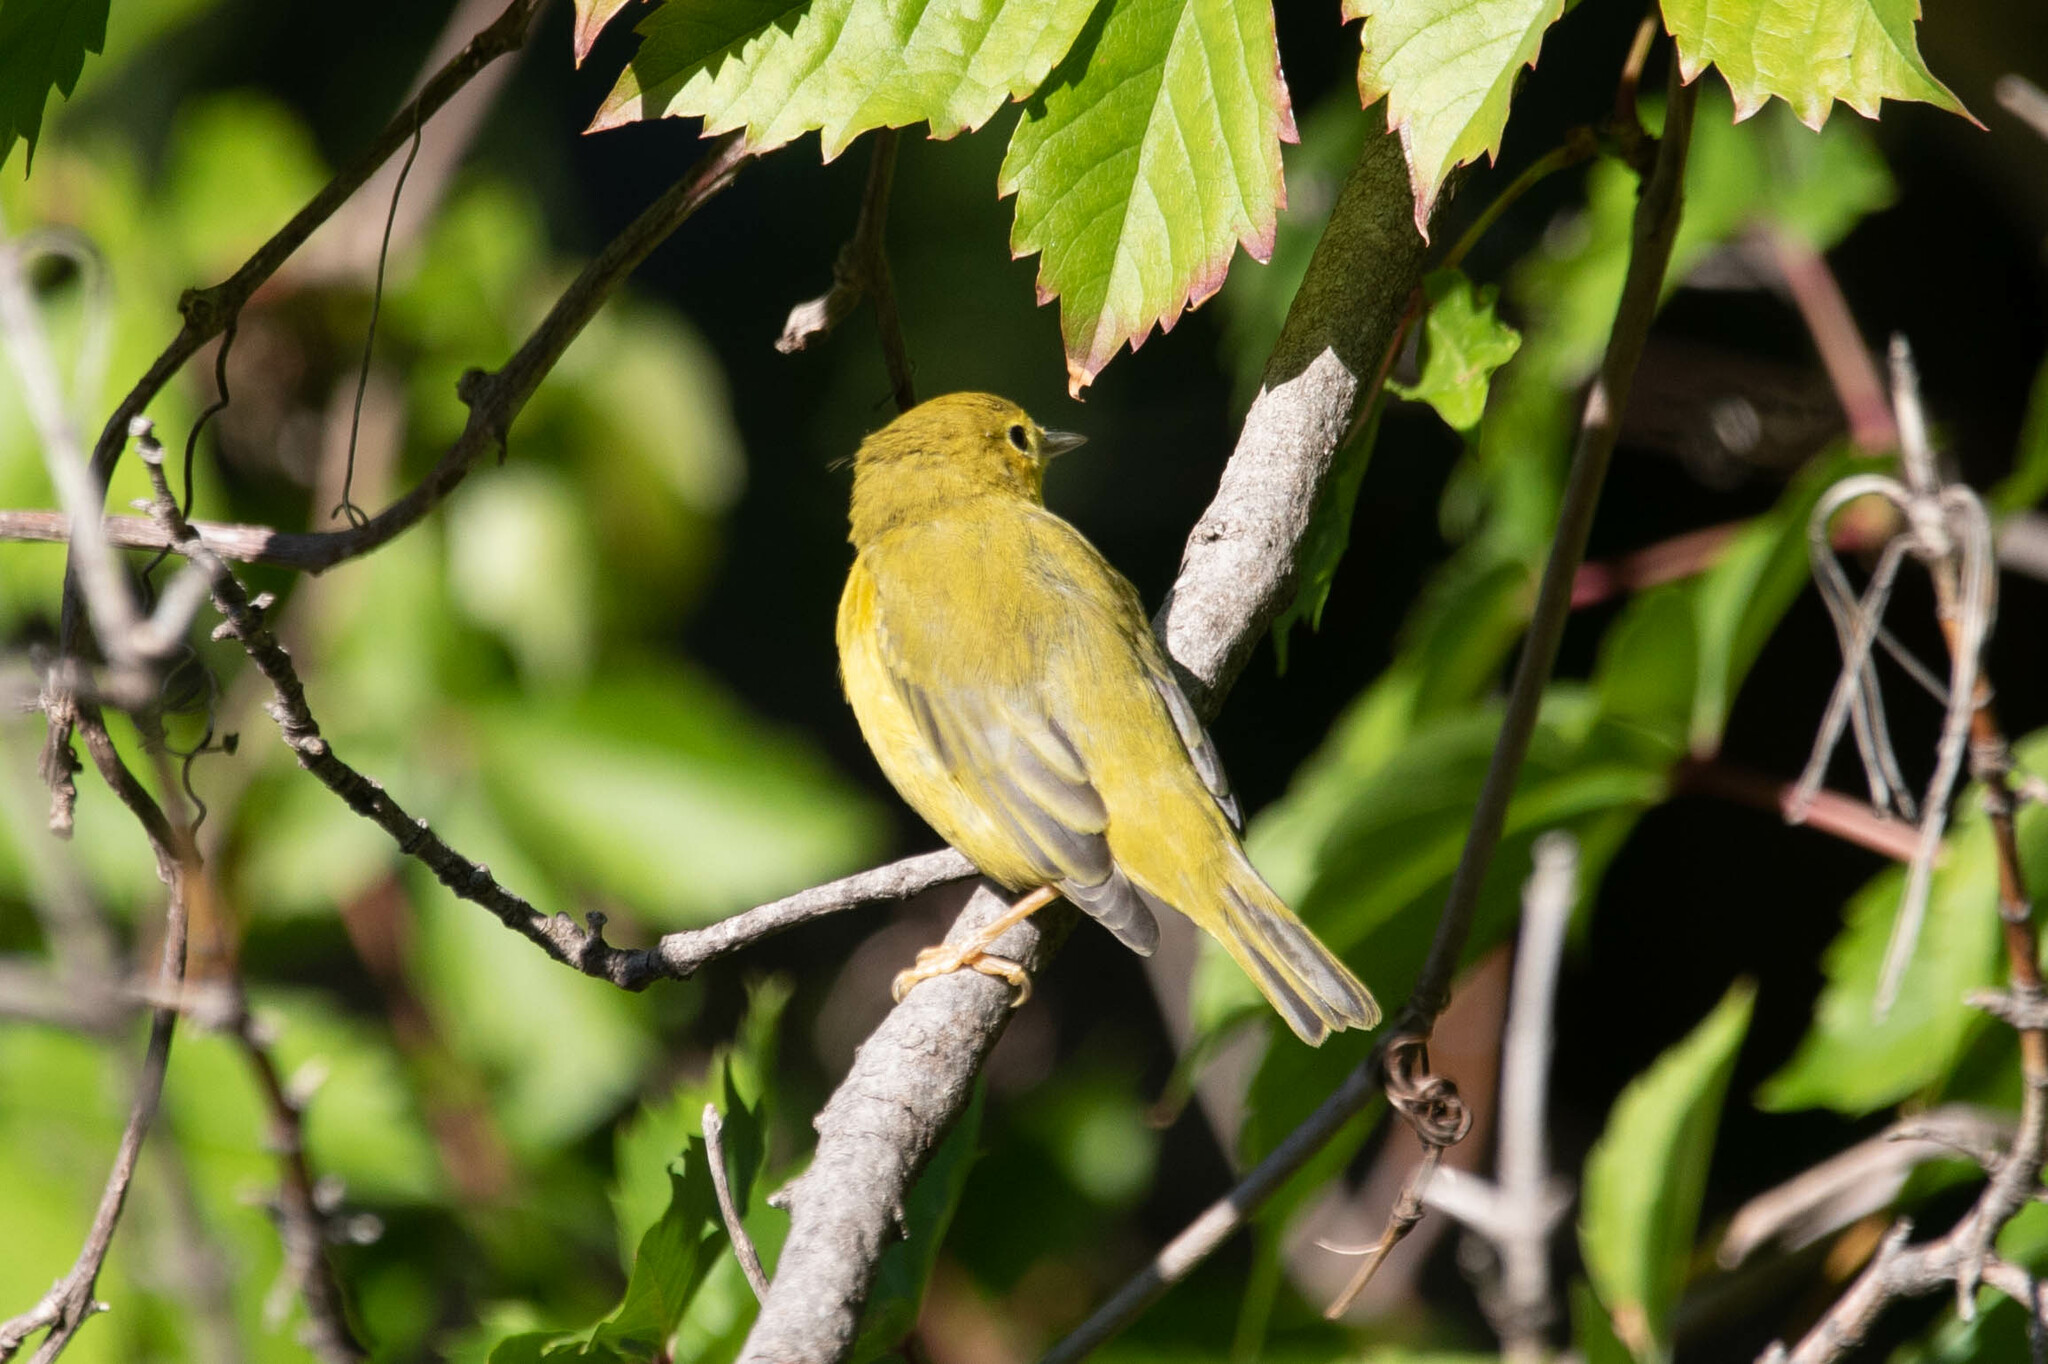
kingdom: Animalia
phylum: Chordata
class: Aves
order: Passeriformes
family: Parulidae
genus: Setophaga
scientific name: Setophaga petechia
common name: Yellow warbler
